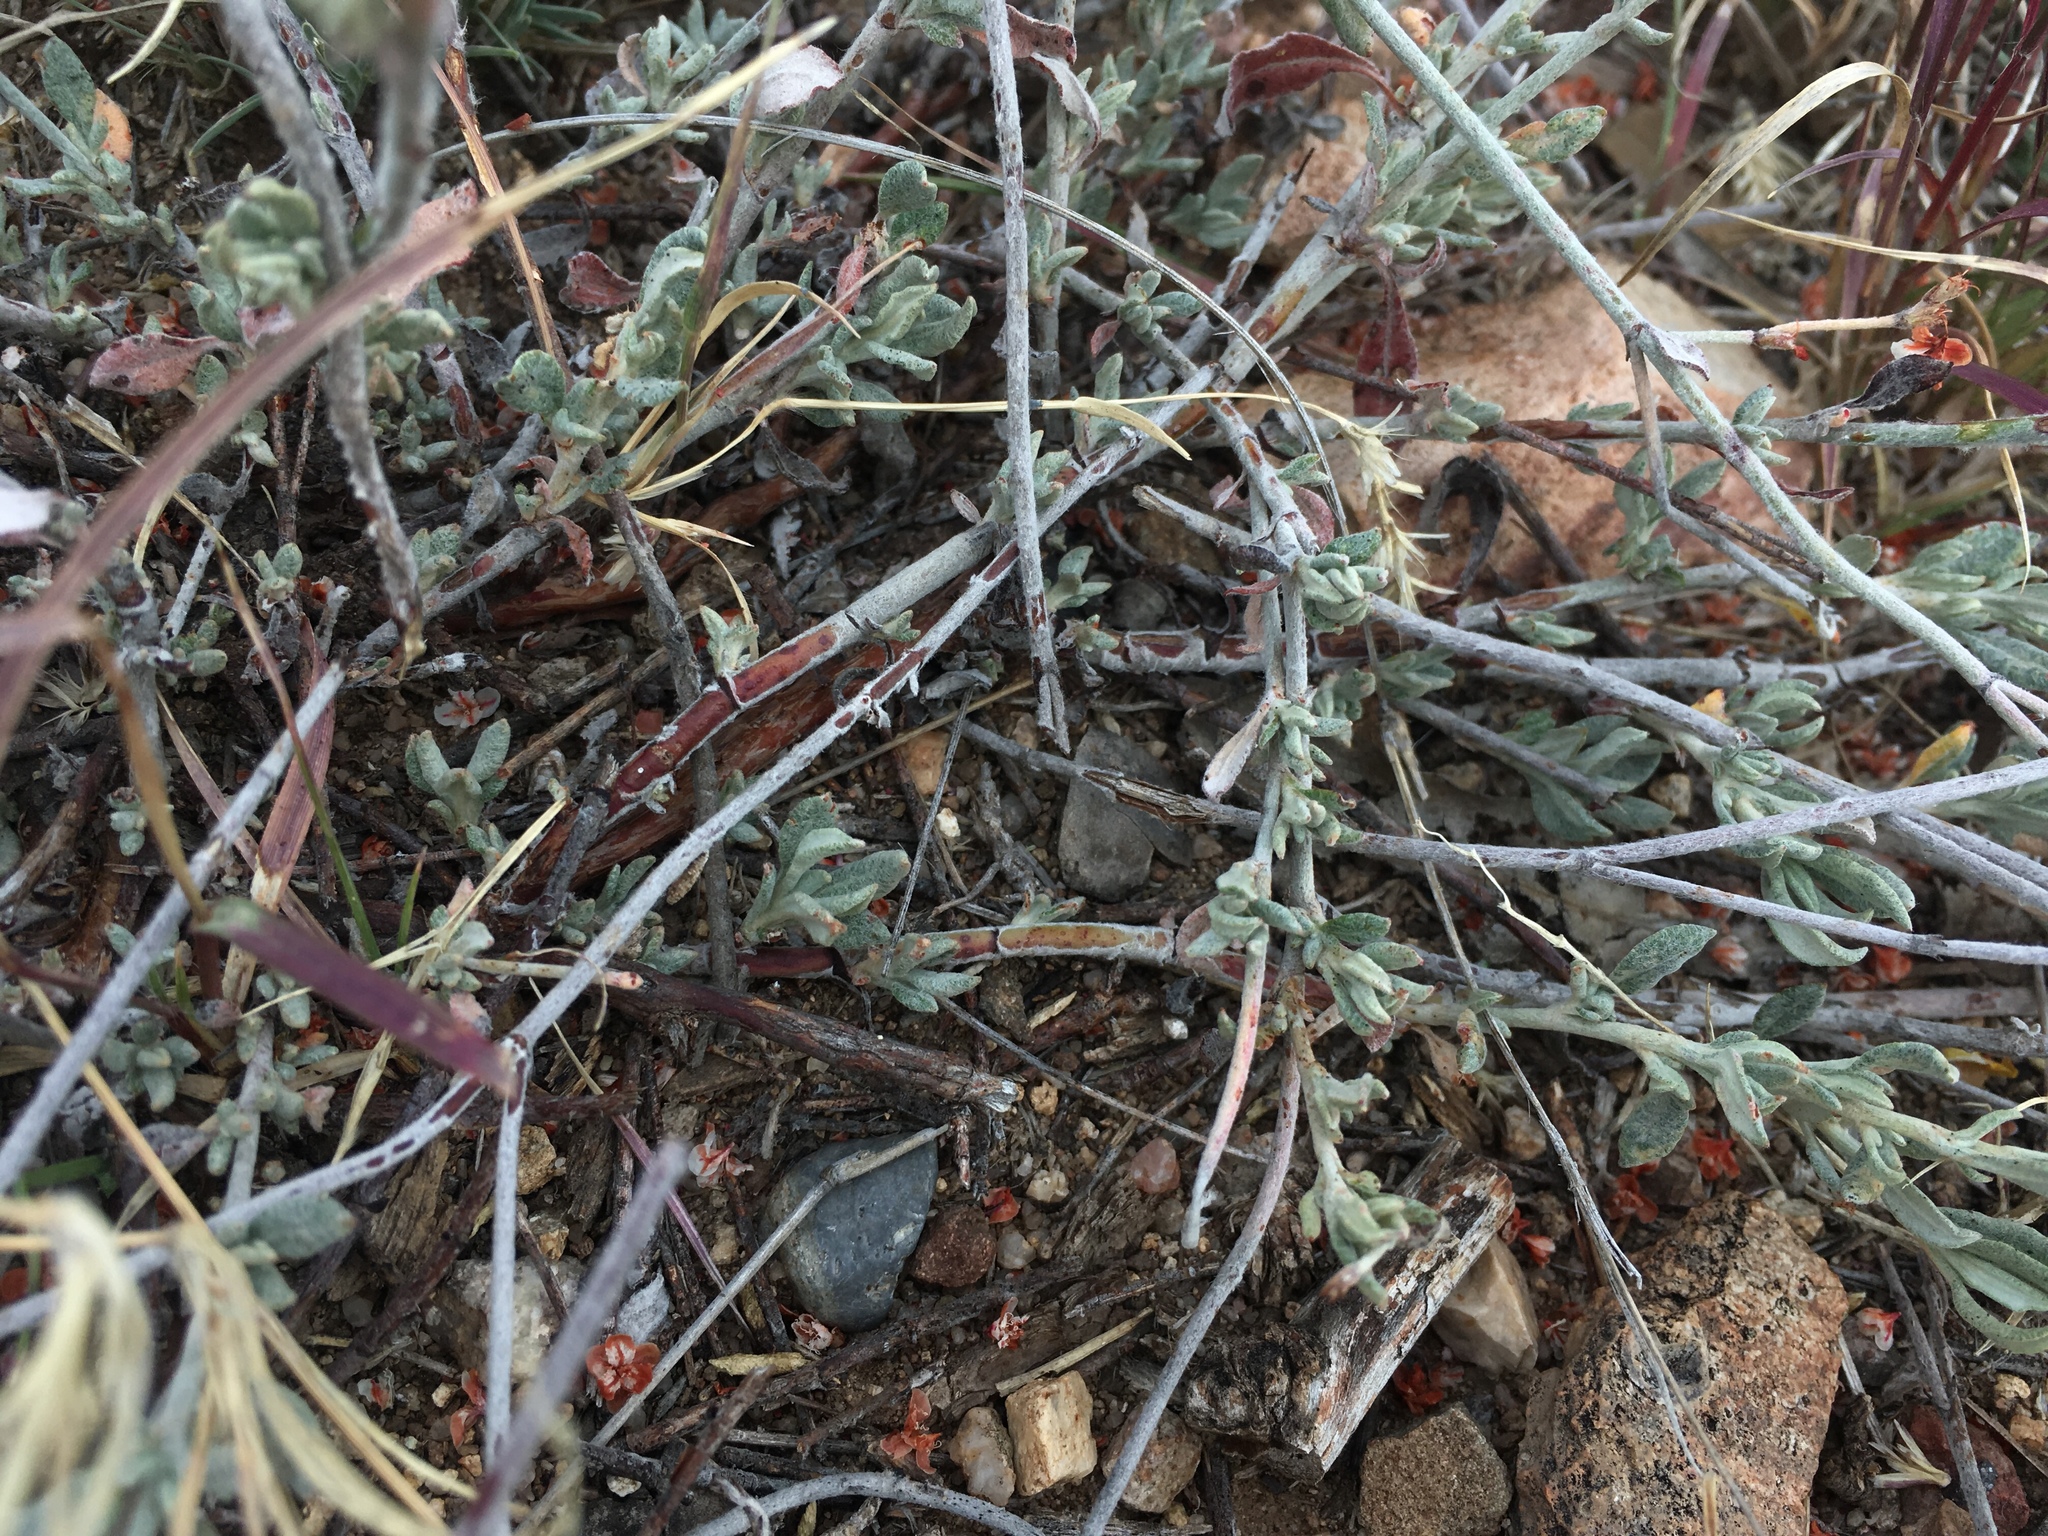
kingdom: Plantae
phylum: Tracheophyta
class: Magnoliopsida
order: Caryophyllales
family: Polygonaceae
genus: Eriogonum
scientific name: Eriogonum wrightii
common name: Bastard-sage
